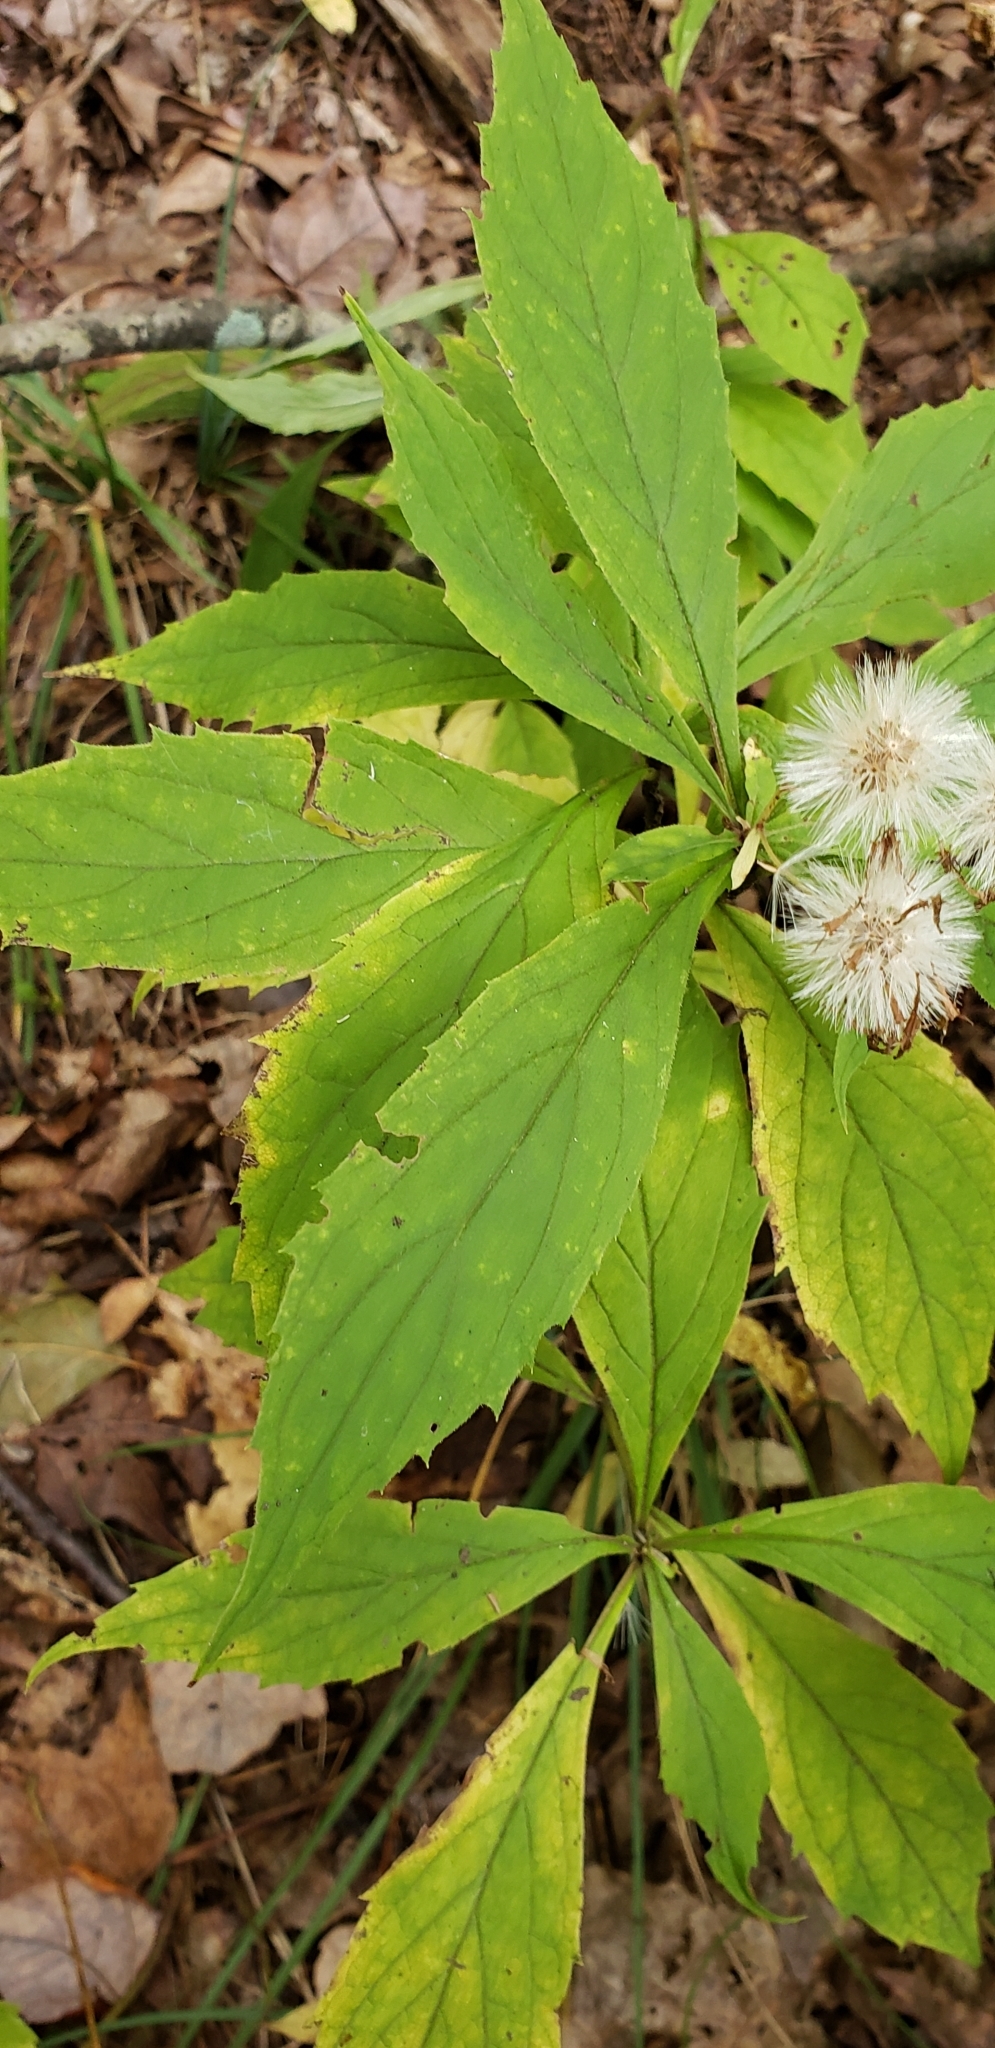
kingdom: Plantae
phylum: Tracheophyta
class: Magnoliopsida
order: Asterales
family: Asteraceae
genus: Oclemena
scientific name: Oclemena acuminata
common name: Mountain aster
